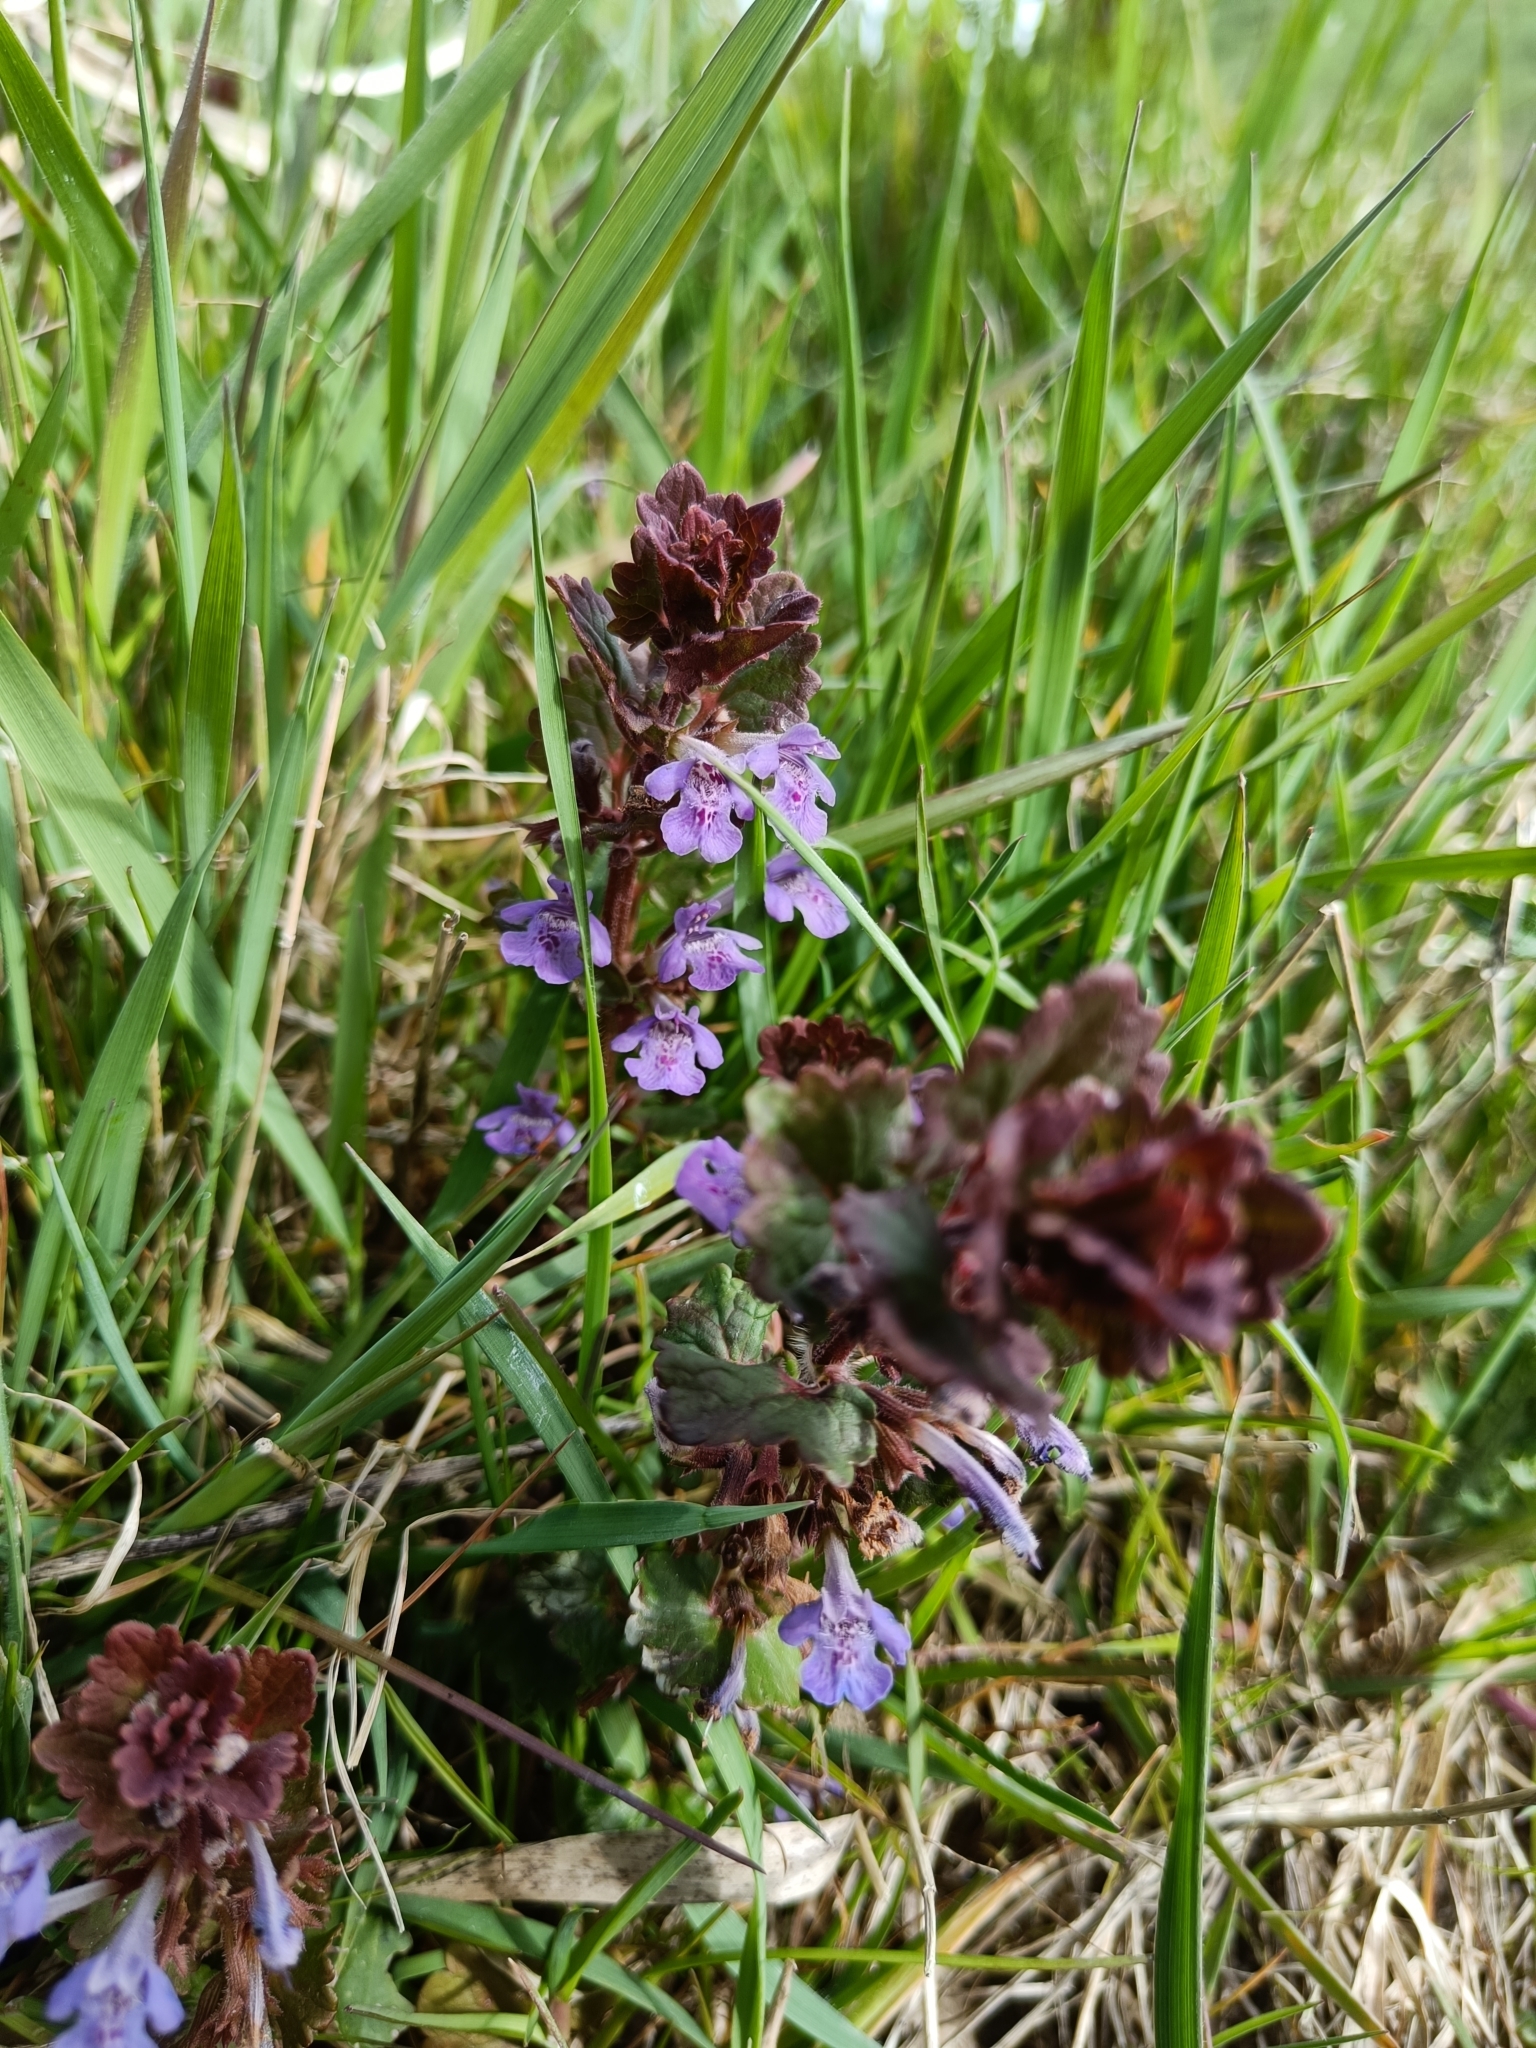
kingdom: Plantae
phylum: Tracheophyta
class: Magnoliopsida
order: Lamiales
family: Lamiaceae
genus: Glechoma
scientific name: Glechoma hederacea
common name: Ground ivy
